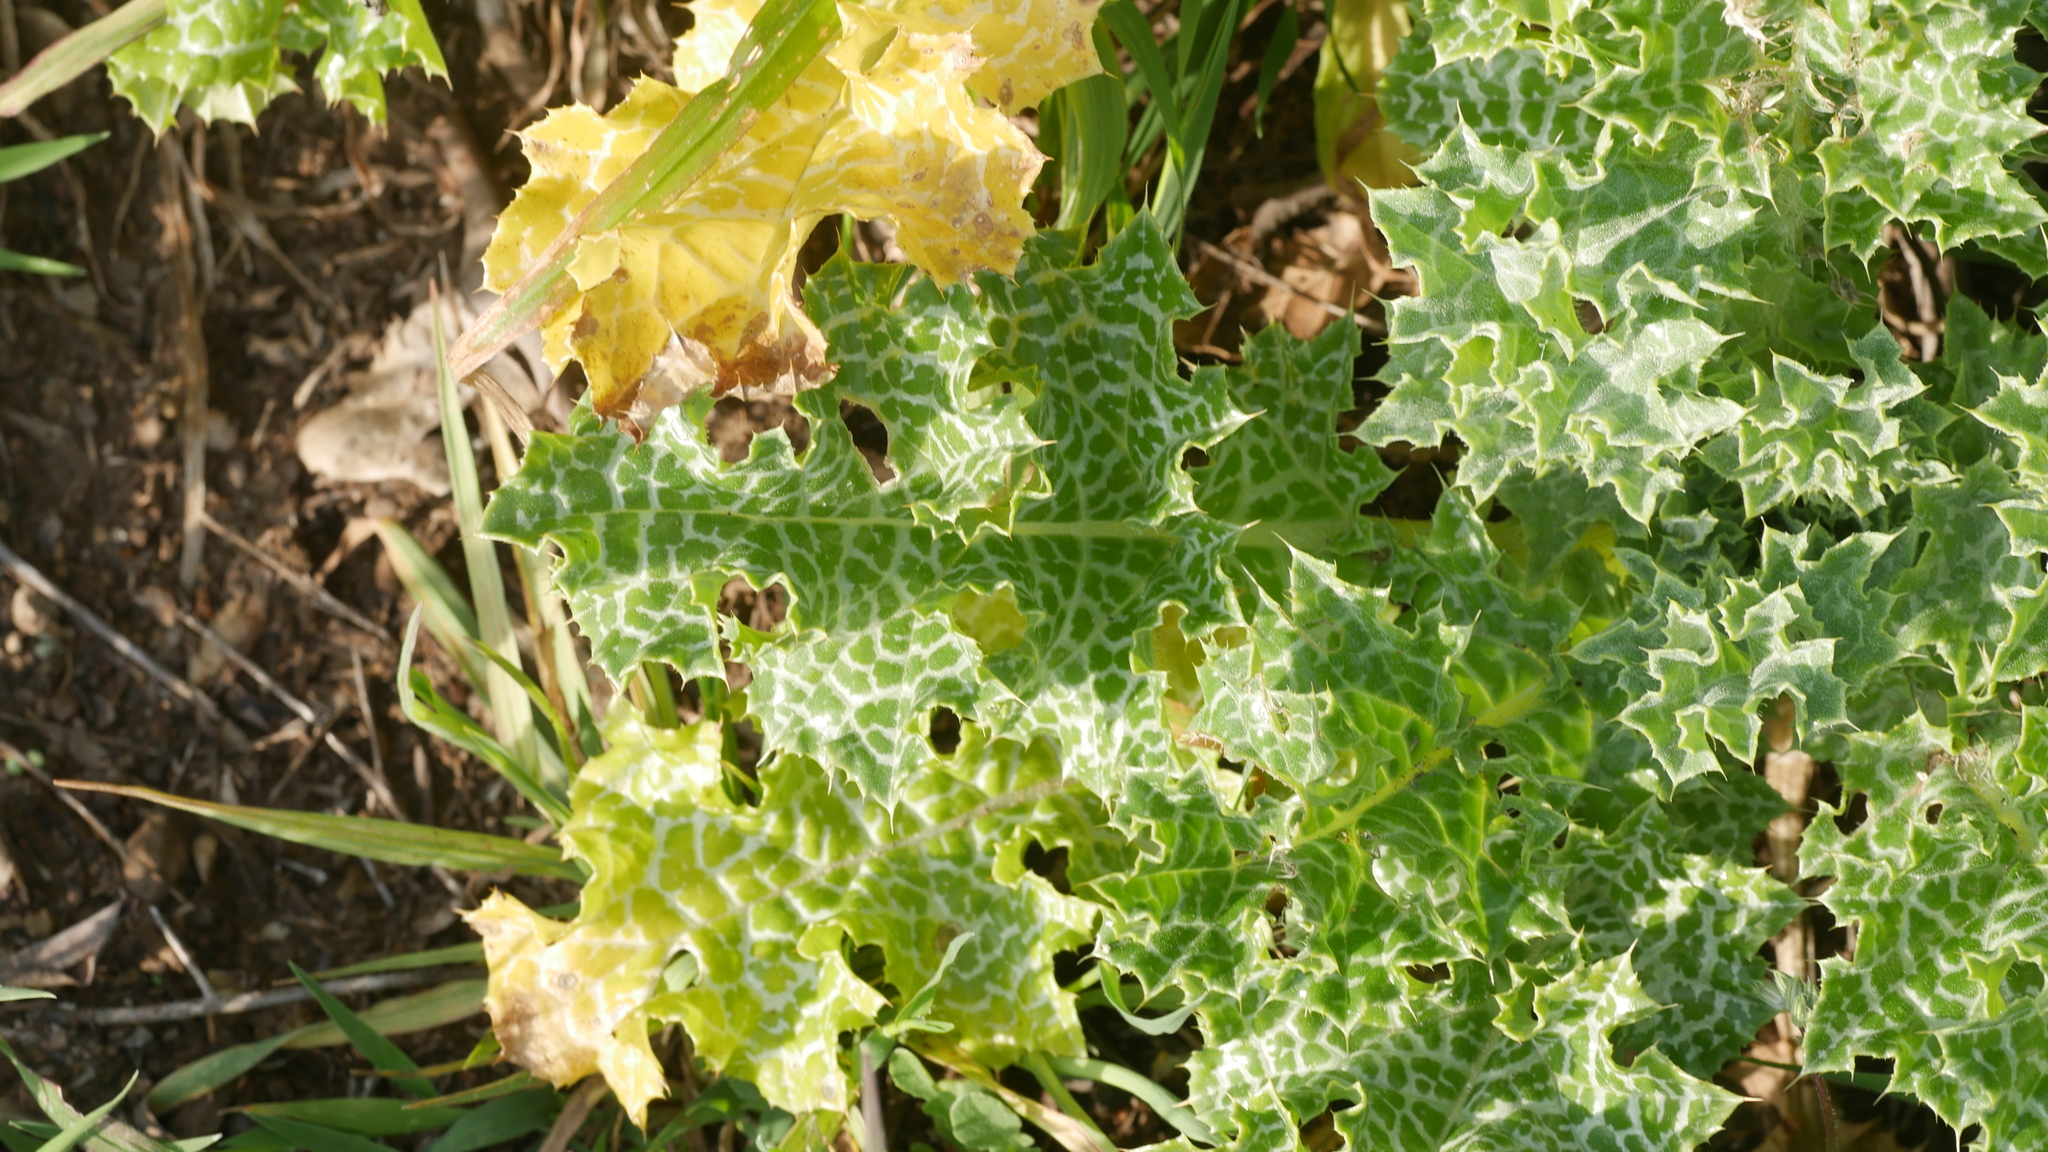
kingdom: Plantae
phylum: Tracheophyta
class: Magnoliopsida
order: Asterales
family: Asteraceae
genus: Silybum
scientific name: Silybum marianum
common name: Milk thistle
